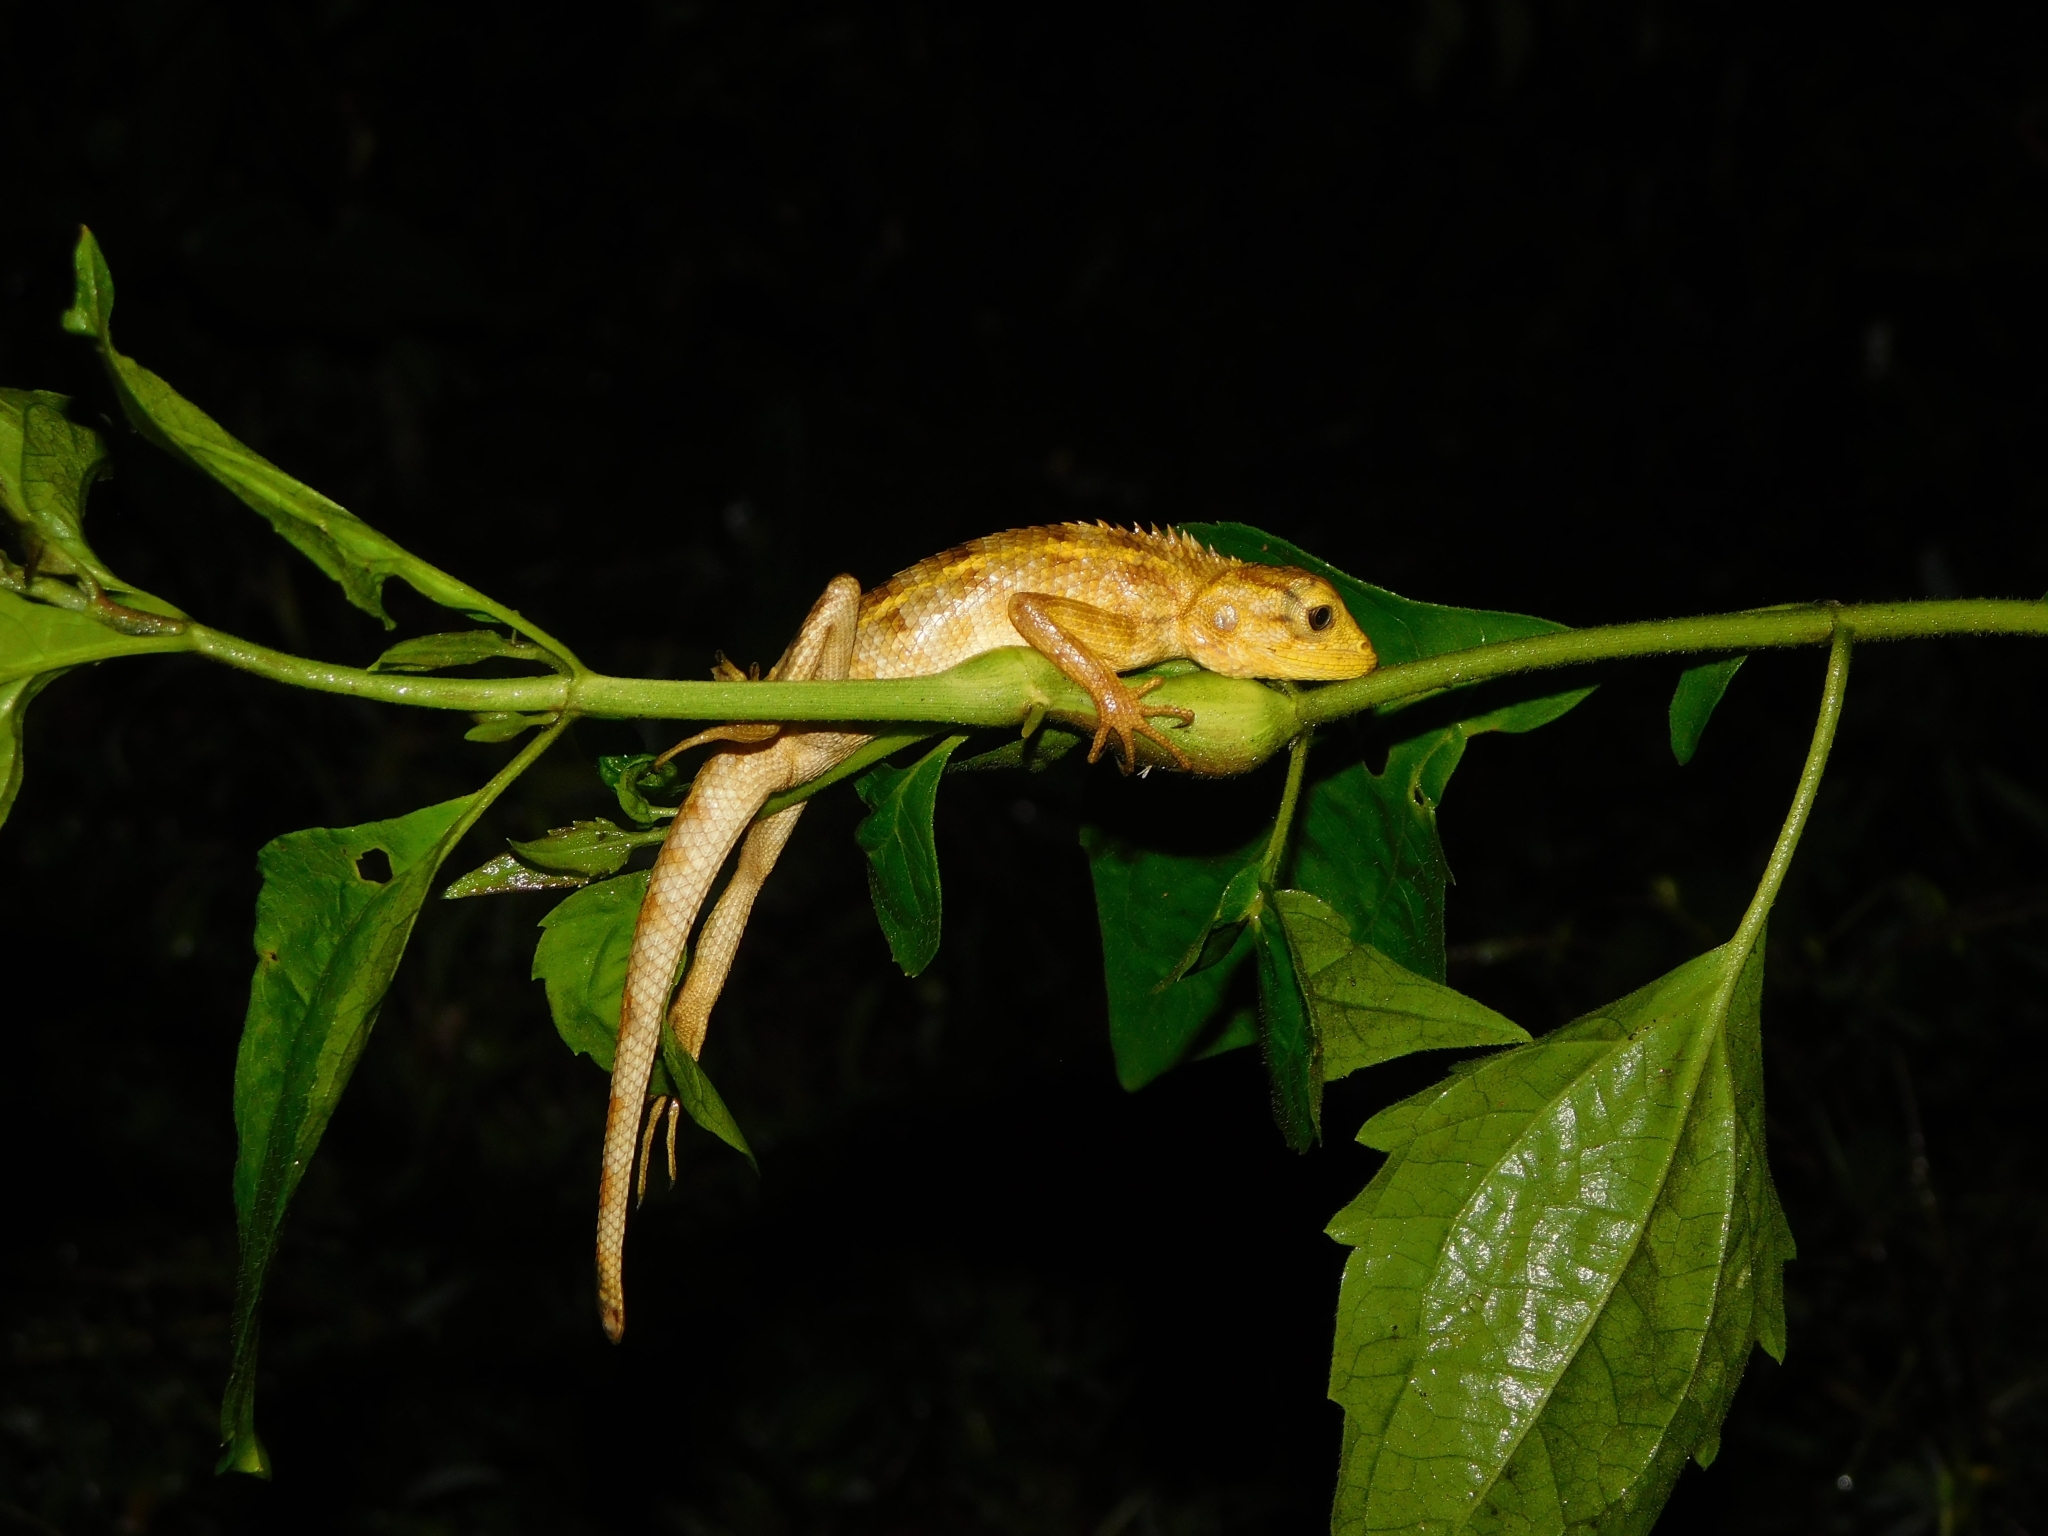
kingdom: Animalia
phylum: Chordata
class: Squamata
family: Agamidae
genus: Calotes
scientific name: Calotes versicolor
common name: Oriental garden lizard
